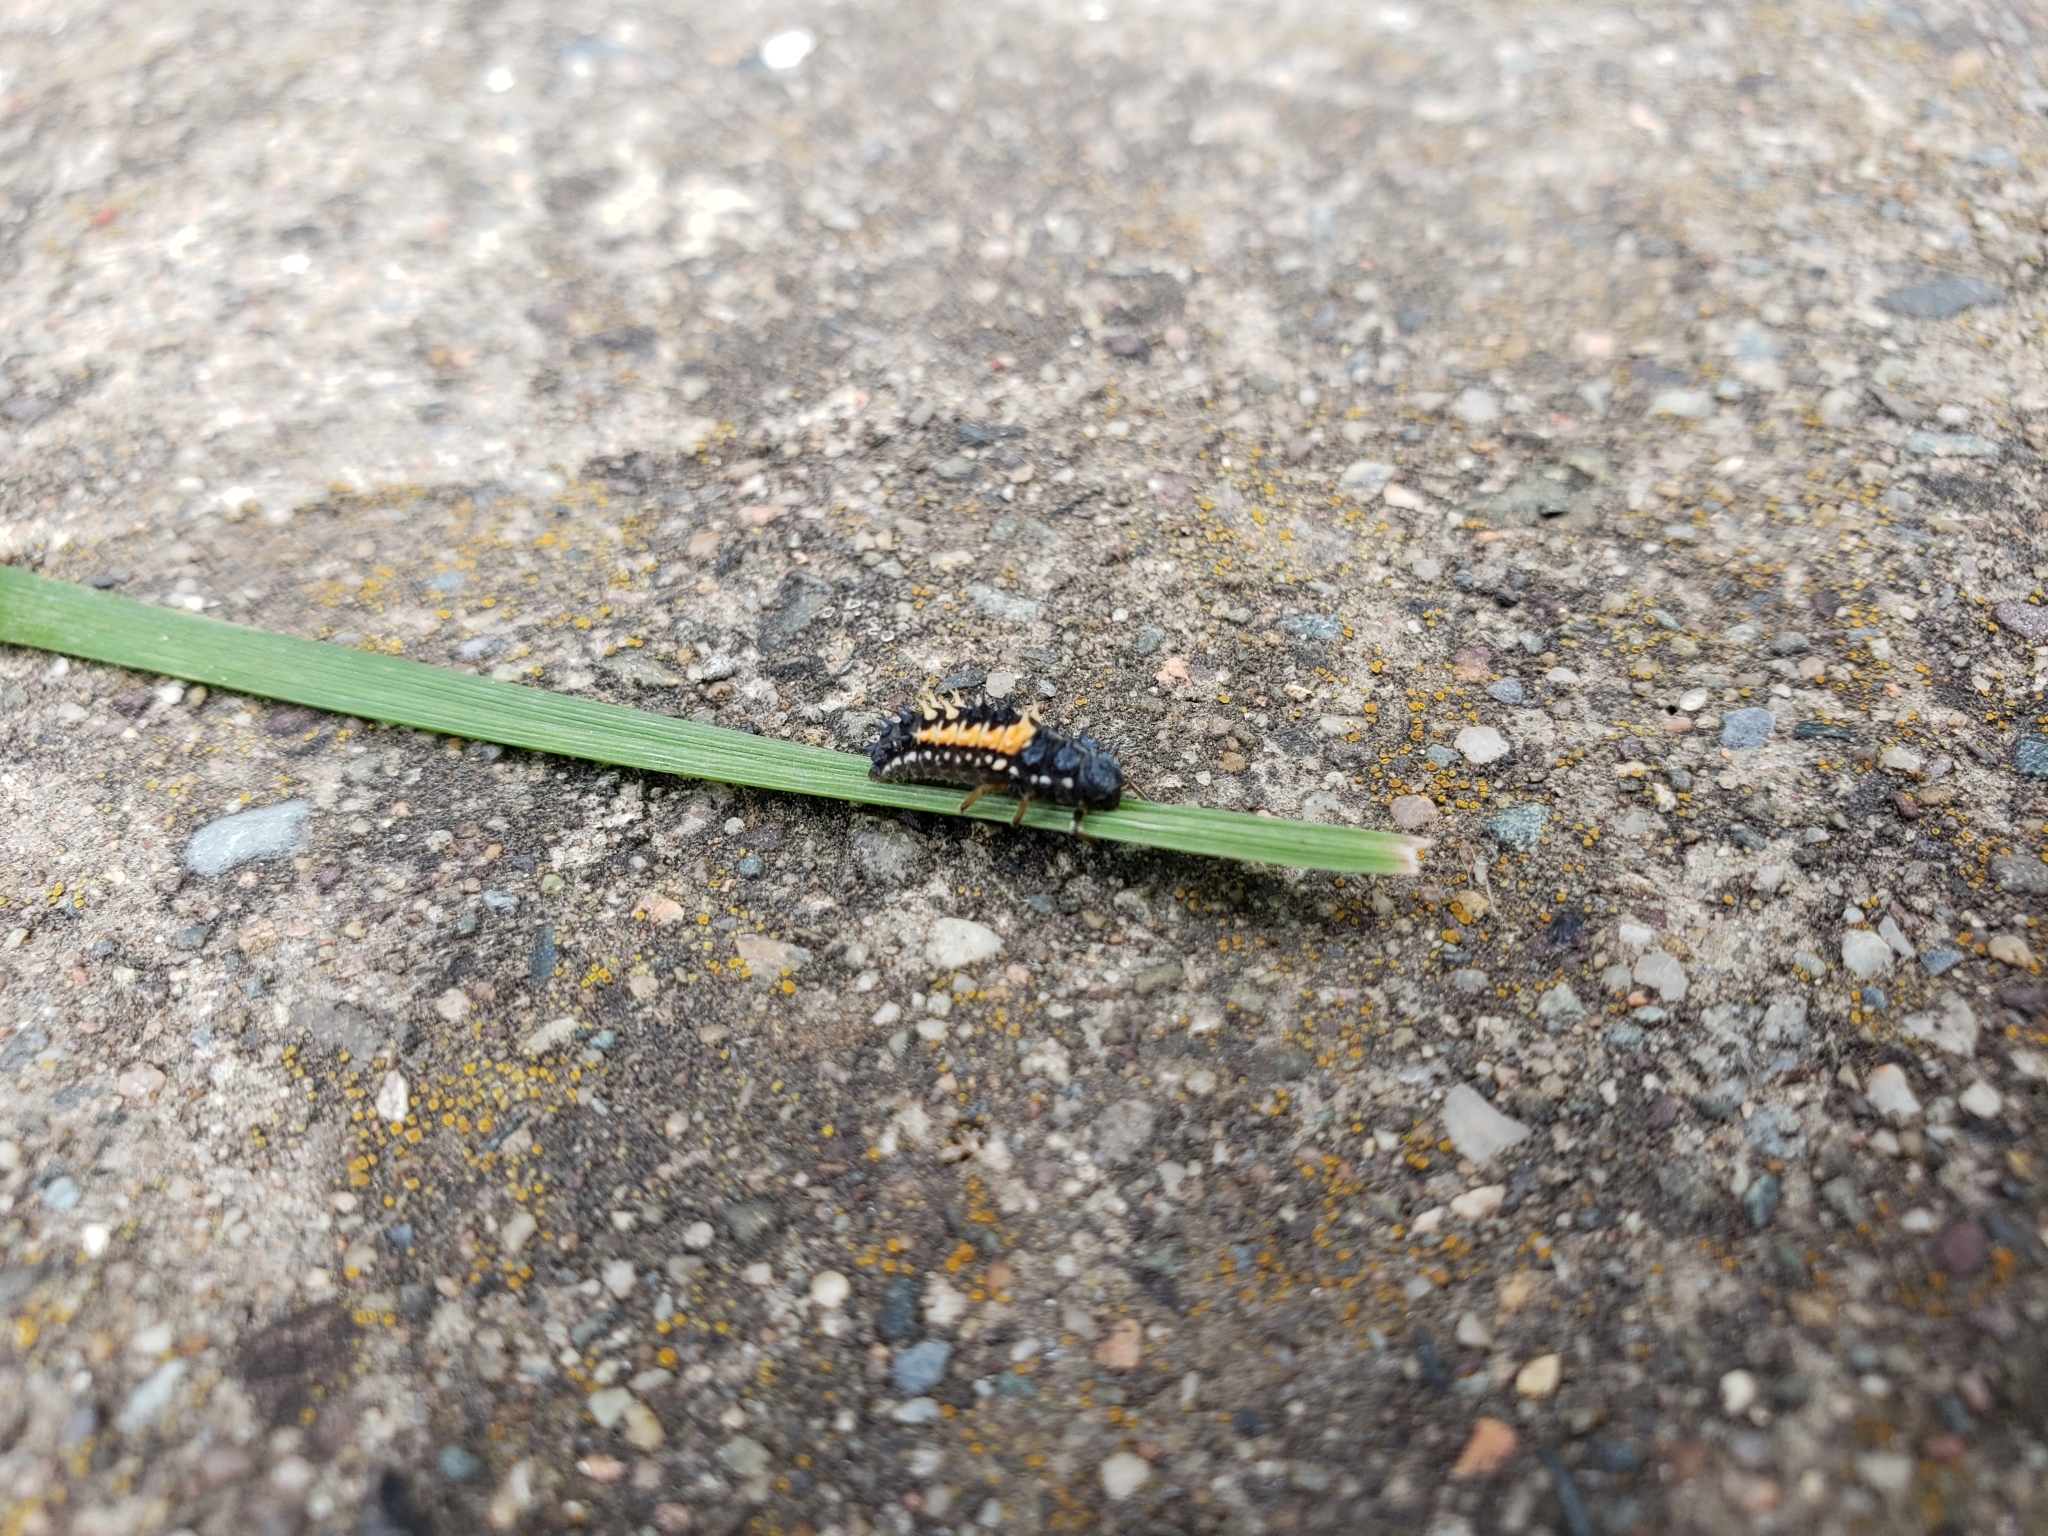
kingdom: Animalia
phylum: Arthropoda
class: Insecta
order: Coleoptera
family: Coccinellidae
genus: Harmonia
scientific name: Harmonia axyridis
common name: Harlequin ladybird
